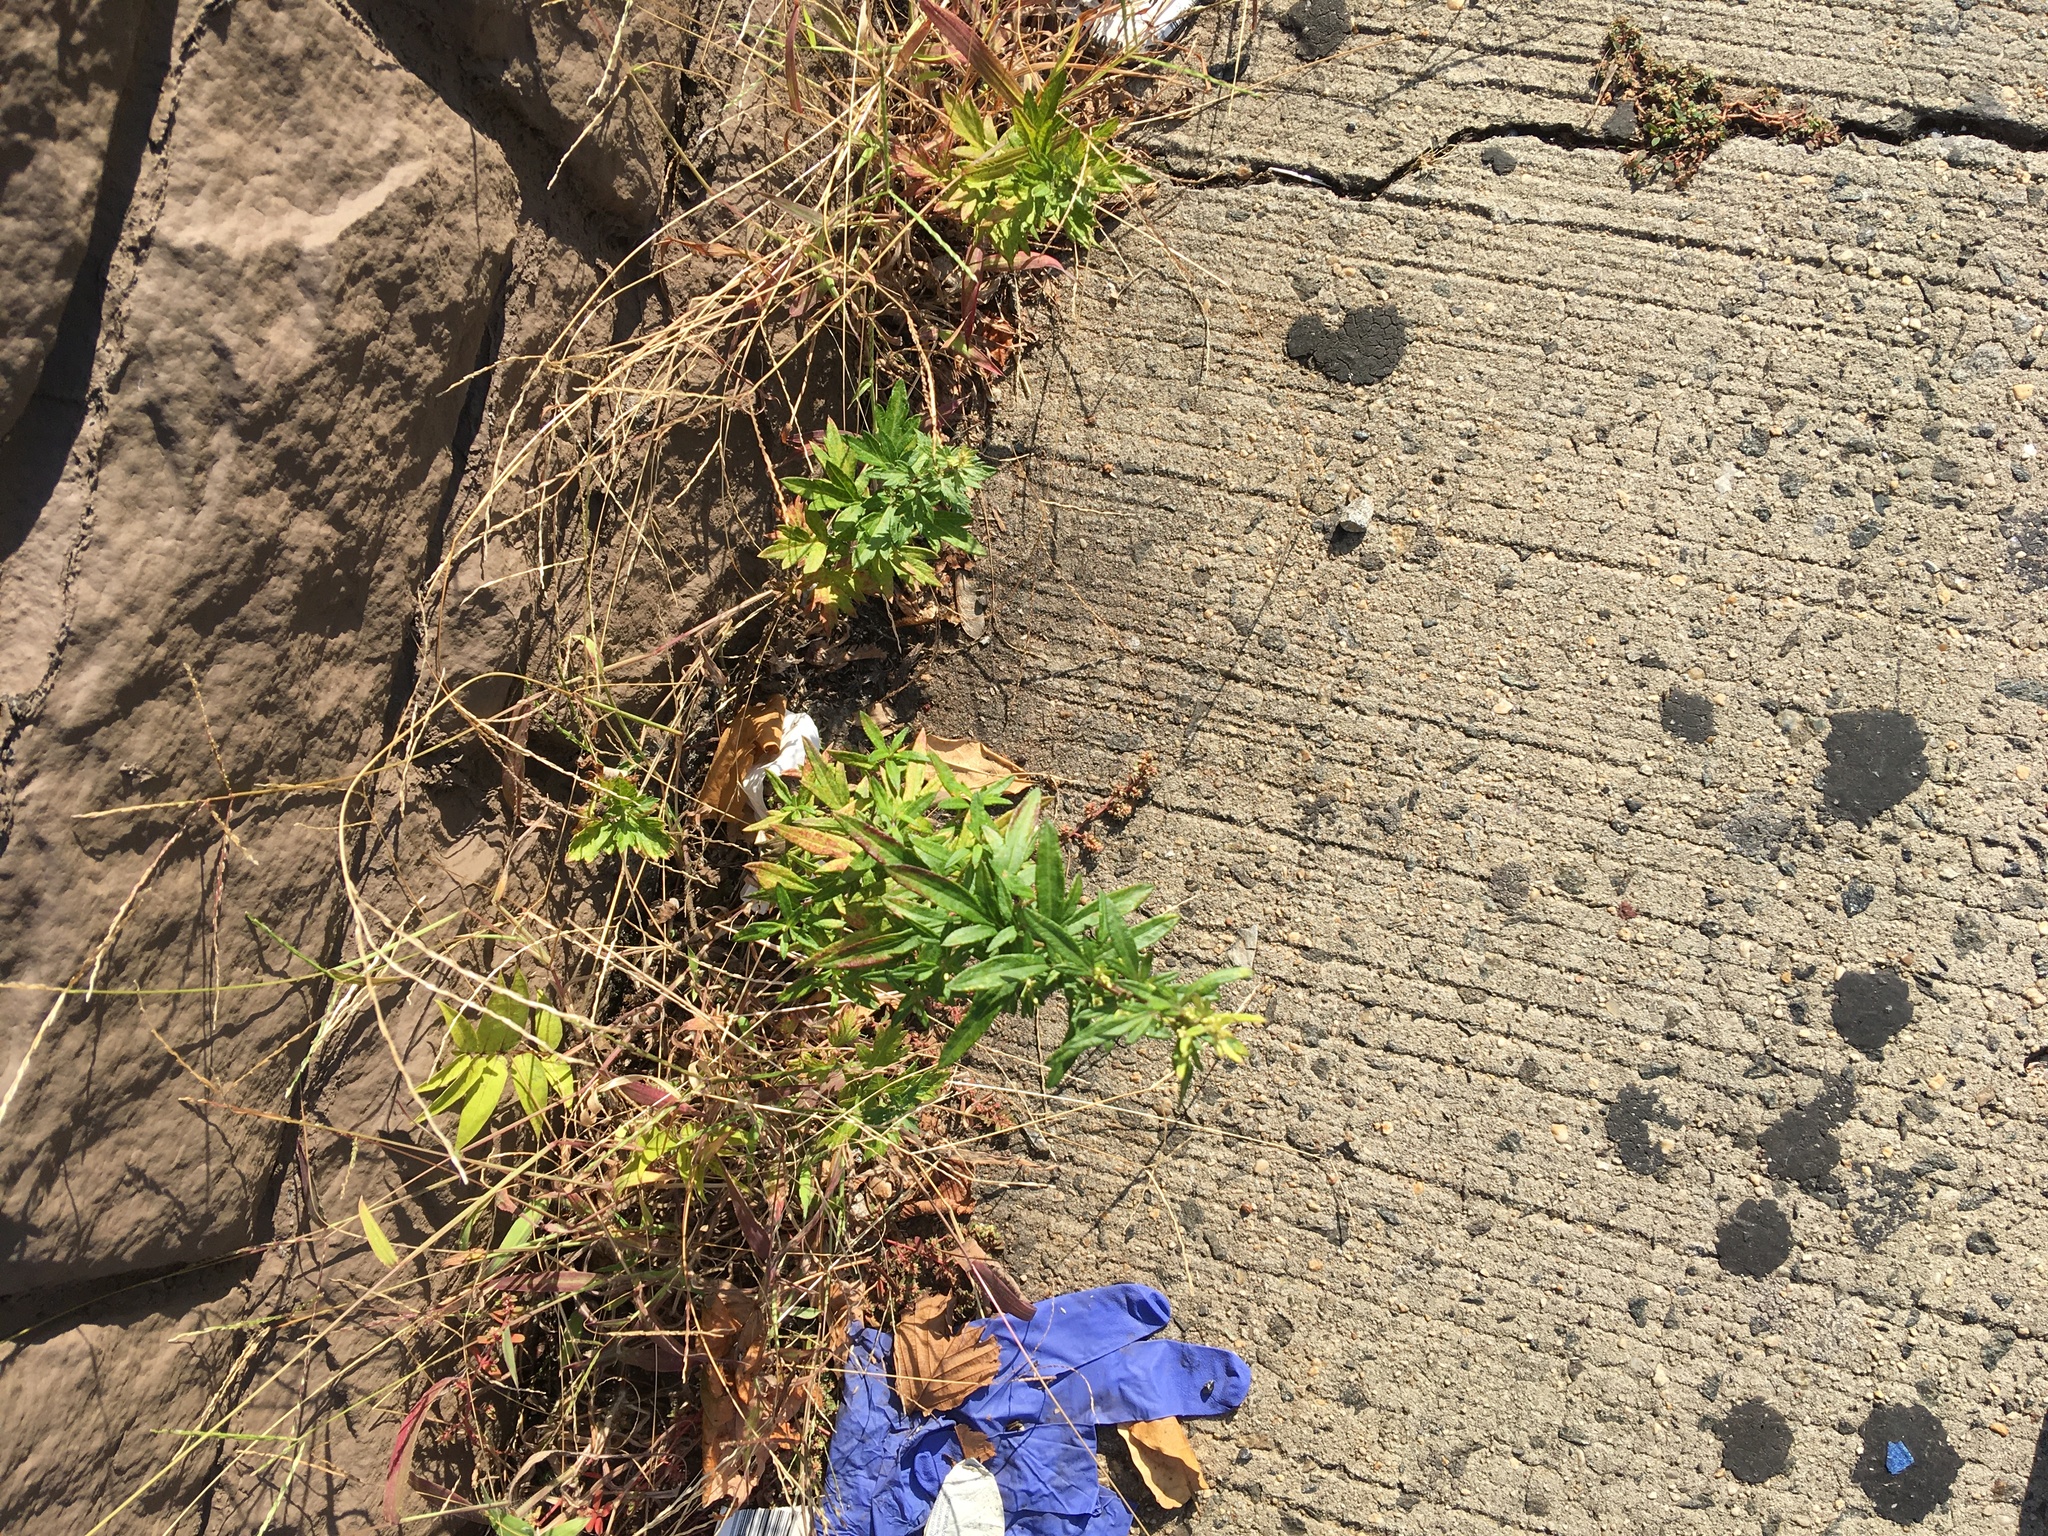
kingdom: Plantae
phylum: Tracheophyta
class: Magnoliopsida
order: Asterales
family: Asteraceae
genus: Artemisia
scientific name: Artemisia vulgaris
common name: Mugwort
